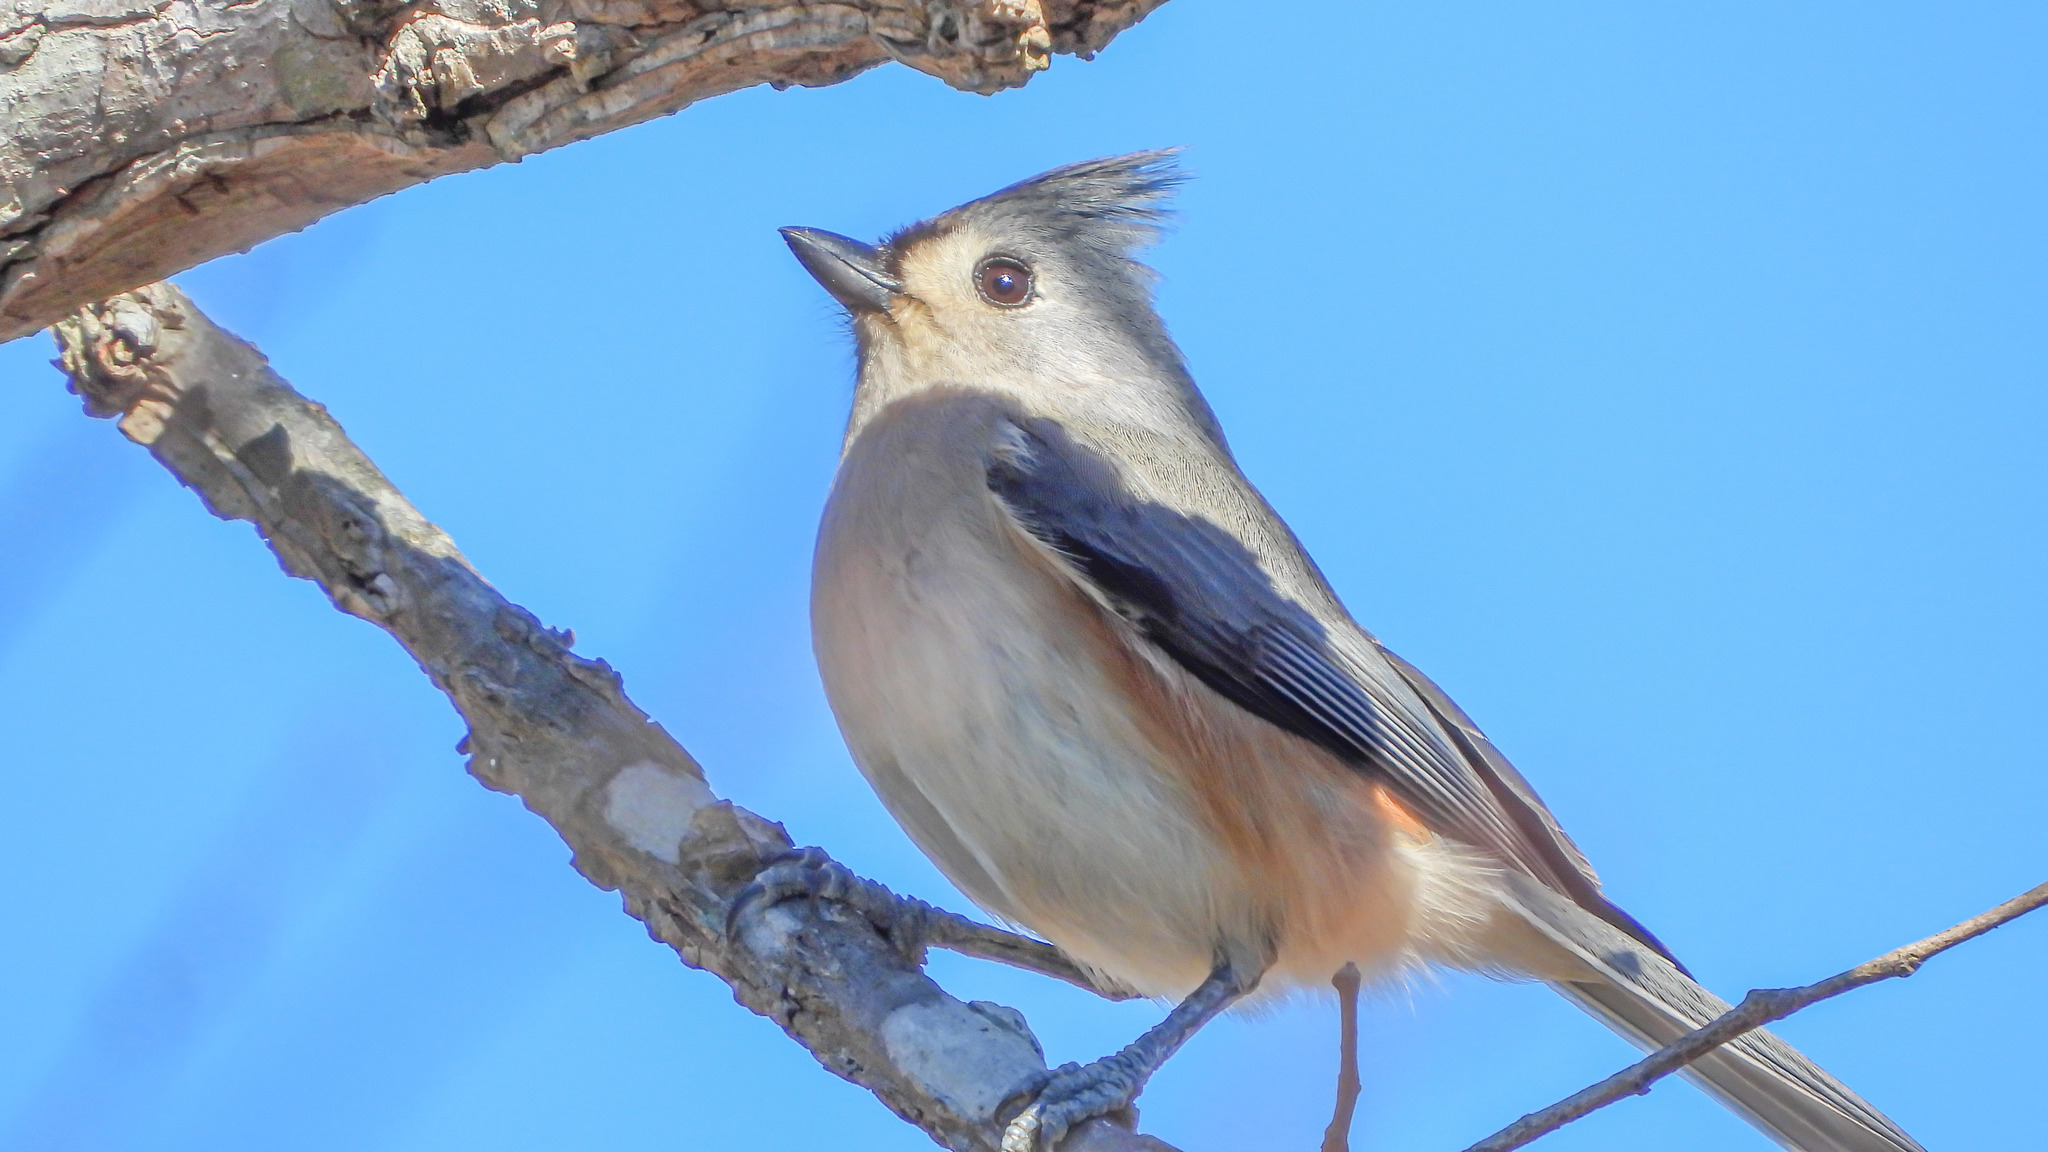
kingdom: Animalia
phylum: Chordata
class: Aves
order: Passeriformes
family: Paridae
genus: Baeolophus
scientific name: Baeolophus bicolor
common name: Tufted titmouse
